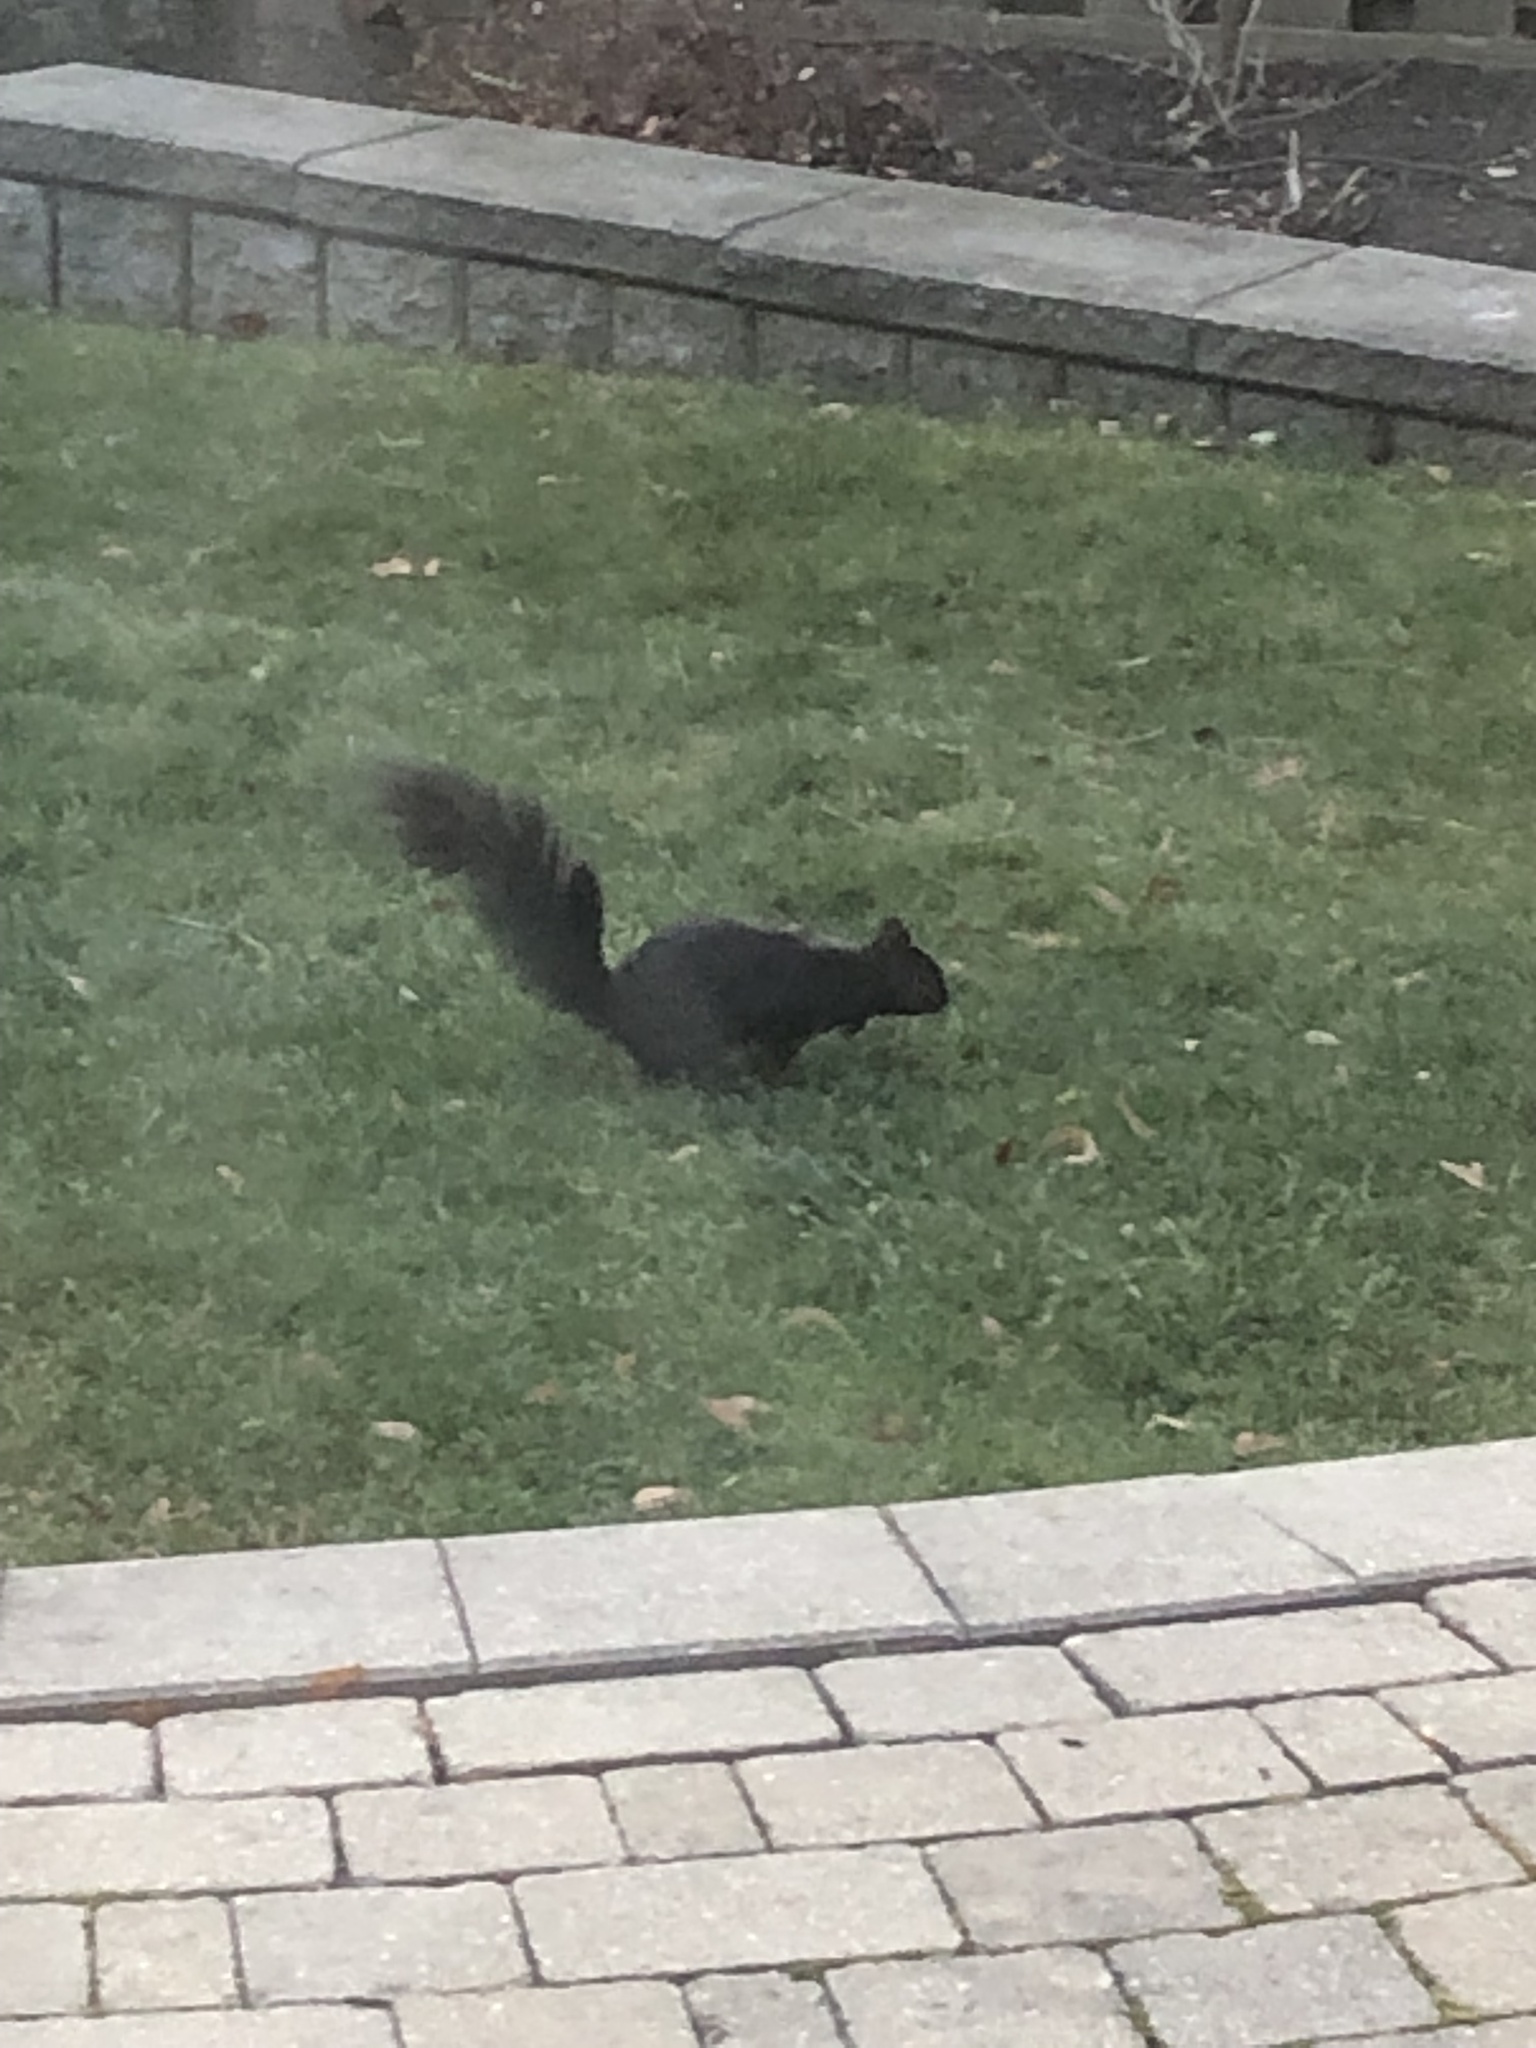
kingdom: Animalia
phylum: Chordata
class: Mammalia
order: Rodentia
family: Sciuridae
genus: Sciurus
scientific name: Sciurus carolinensis
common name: Eastern gray squirrel
